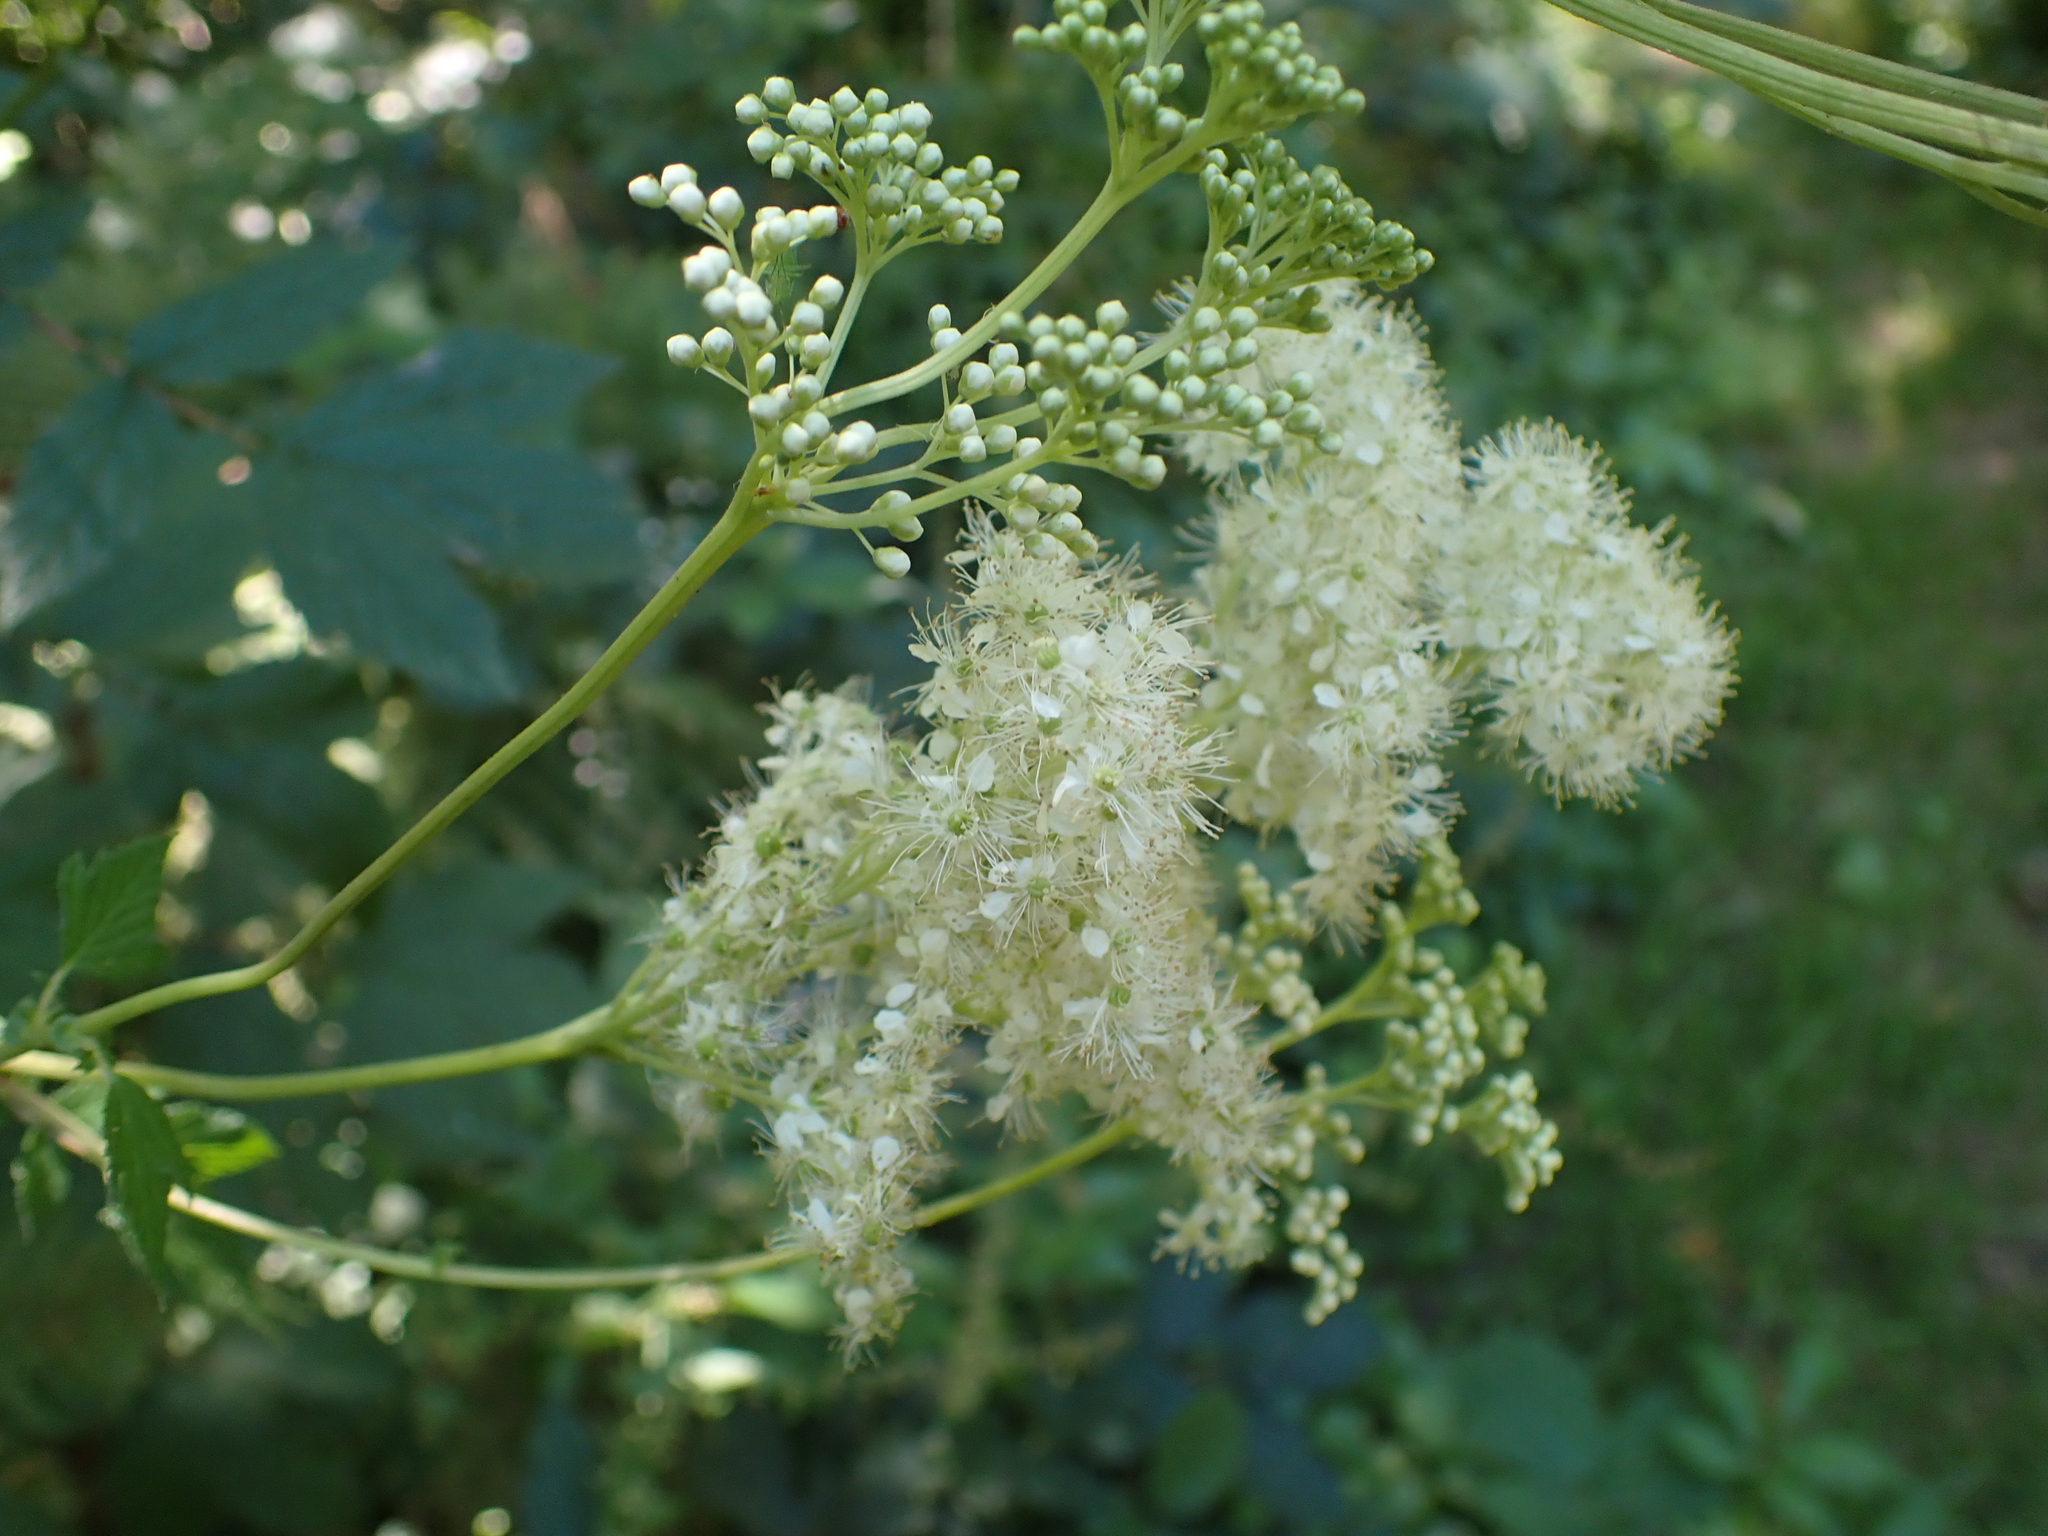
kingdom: Plantae
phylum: Tracheophyta
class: Magnoliopsida
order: Rosales
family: Rosaceae
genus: Filipendula
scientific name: Filipendula ulmaria
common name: Meadowsweet
